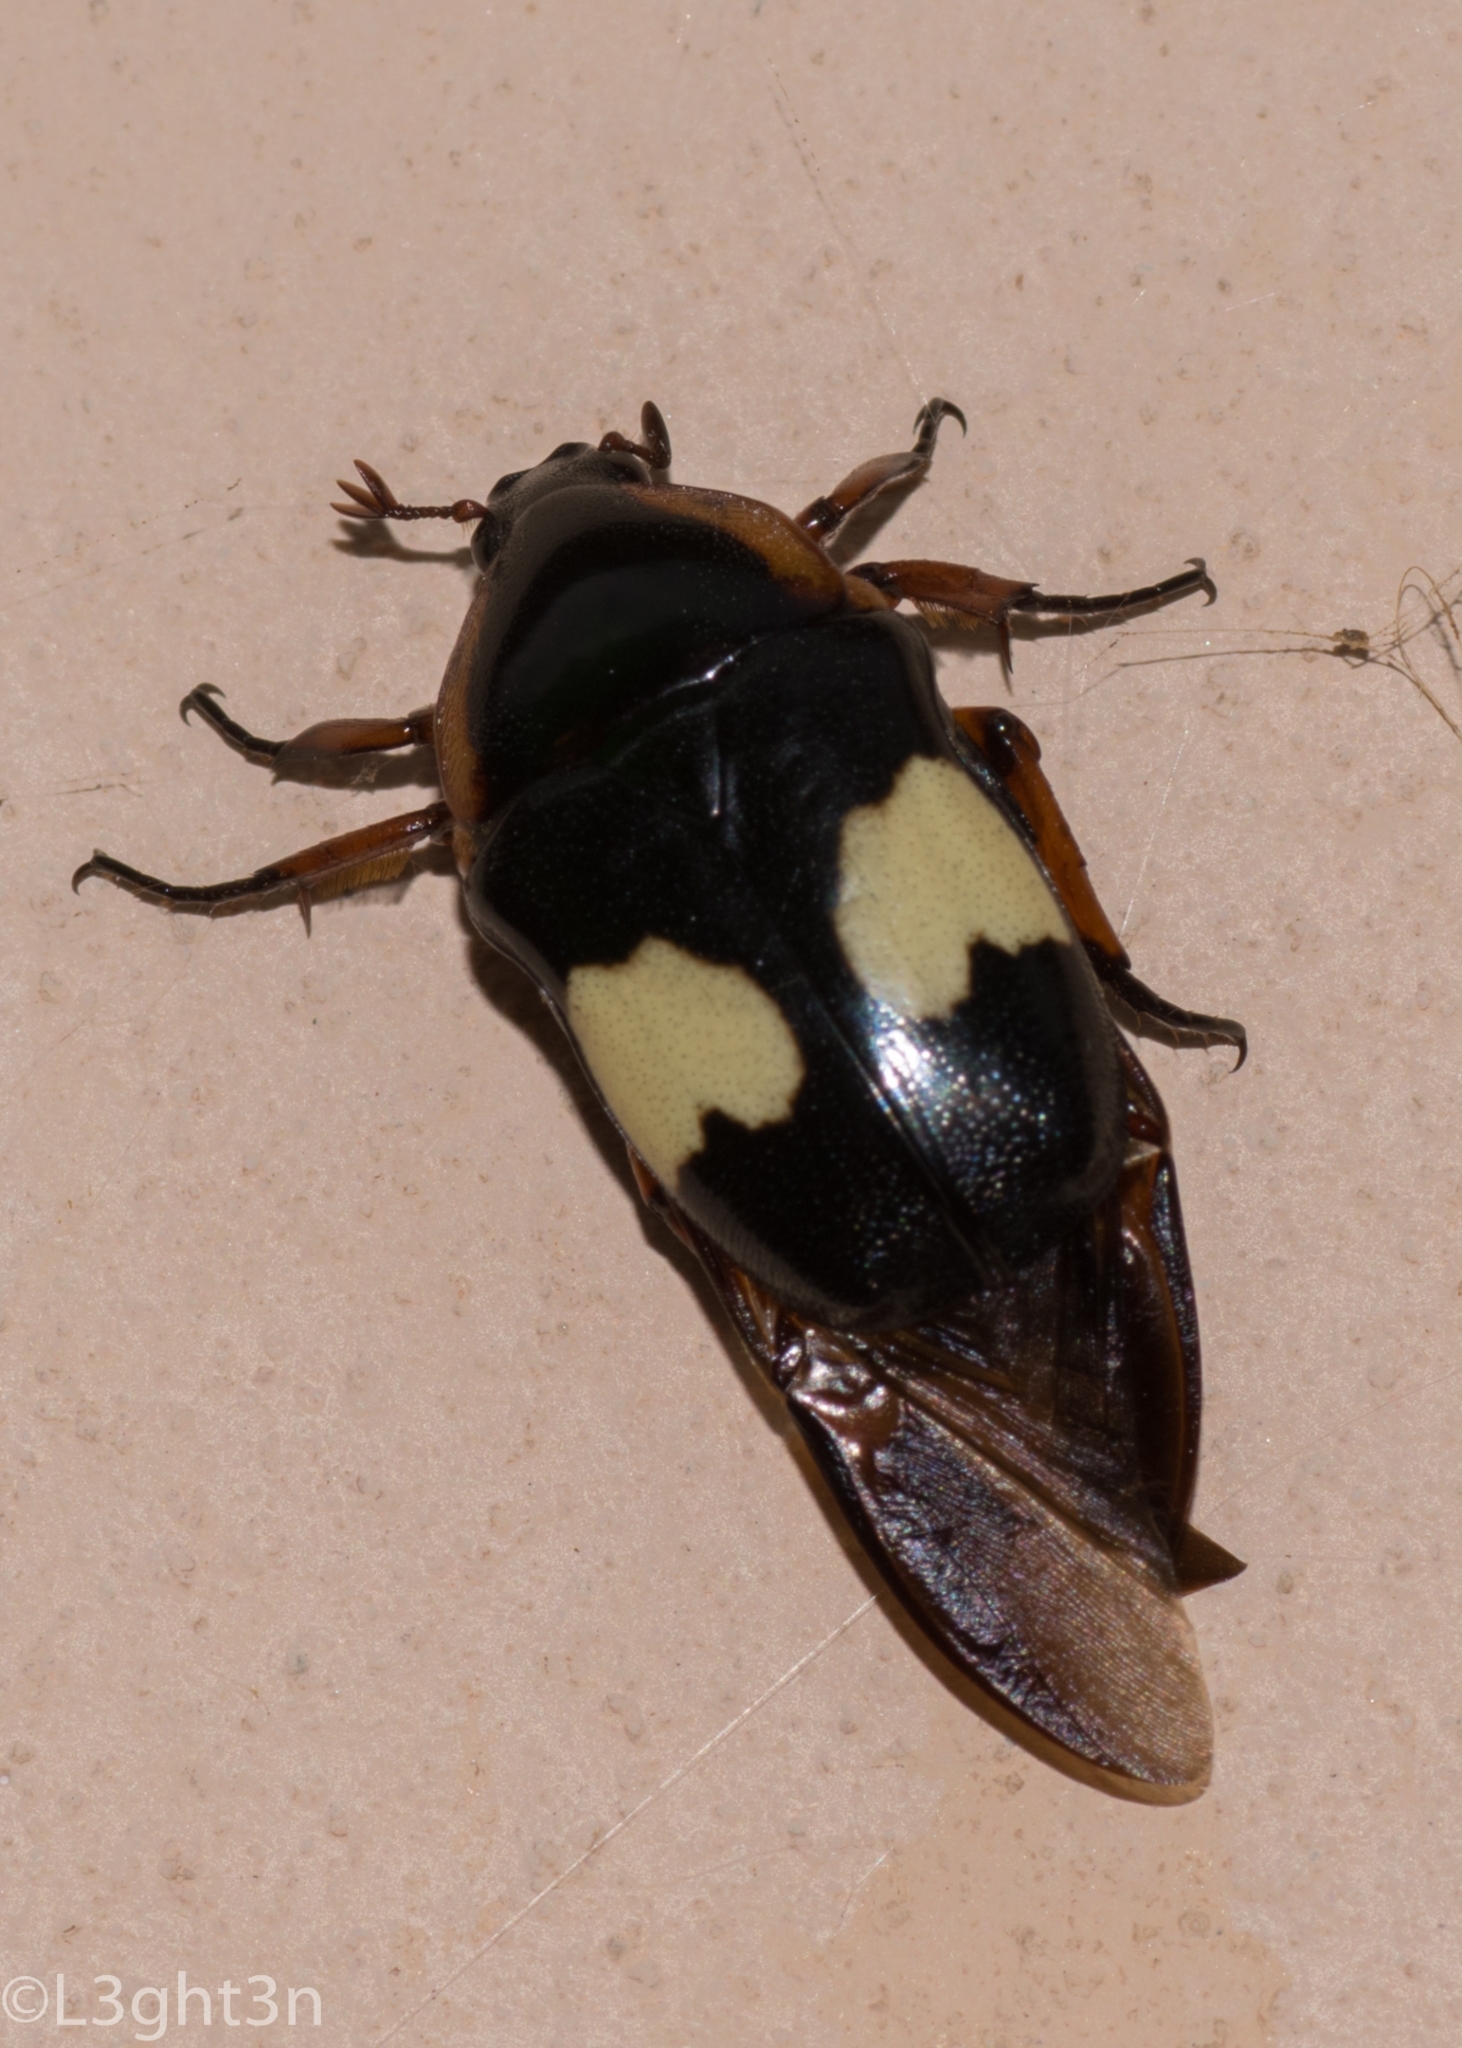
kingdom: Animalia
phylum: Arthropoda
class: Insecta
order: Coleoptera
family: Scarabaeidae
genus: Pedinorrhina
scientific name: Pedinorrhina
